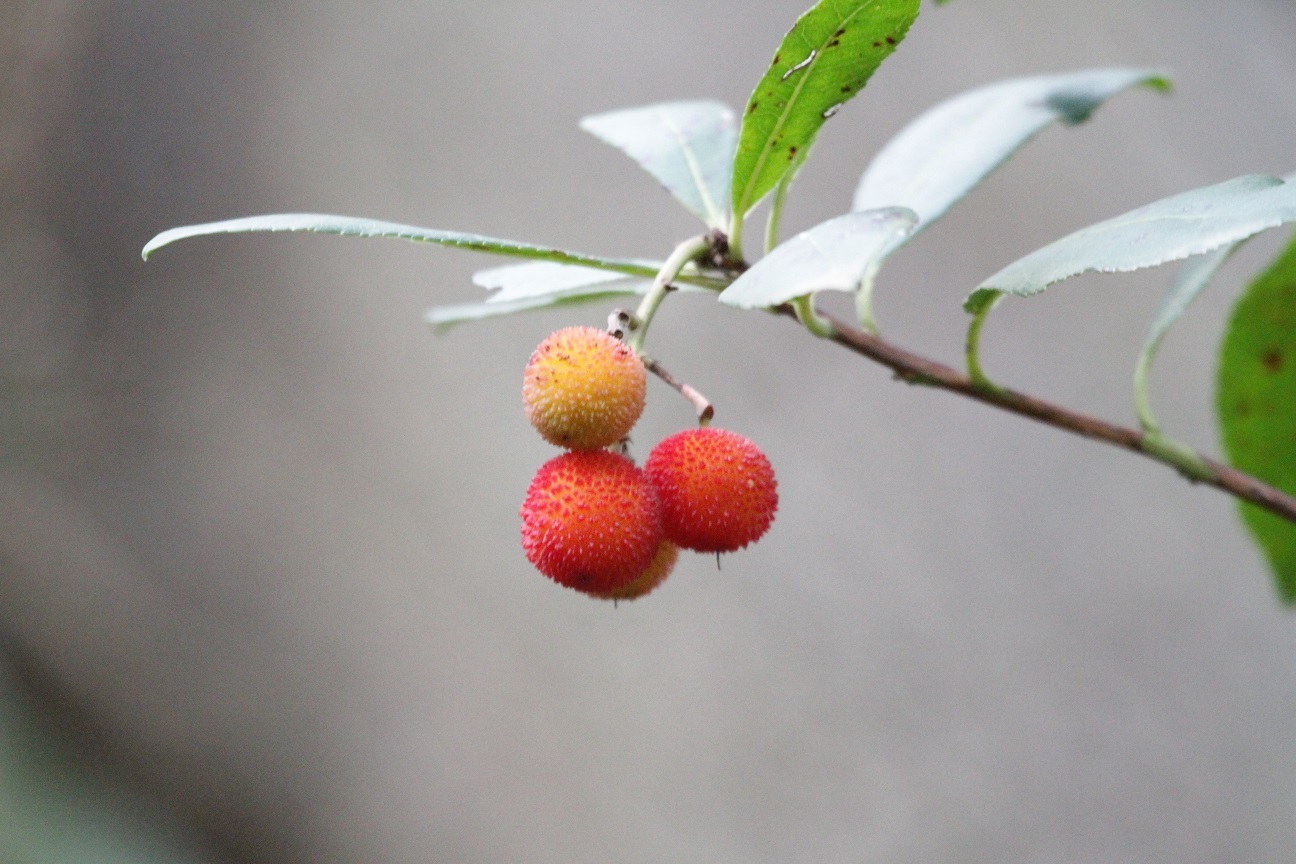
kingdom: Plantae
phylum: Tracheophyta
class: Magnoliopsida
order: Ericales
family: Ericaceae
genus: Arbutus
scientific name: Arbutus unedo
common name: Strawberry-tree
